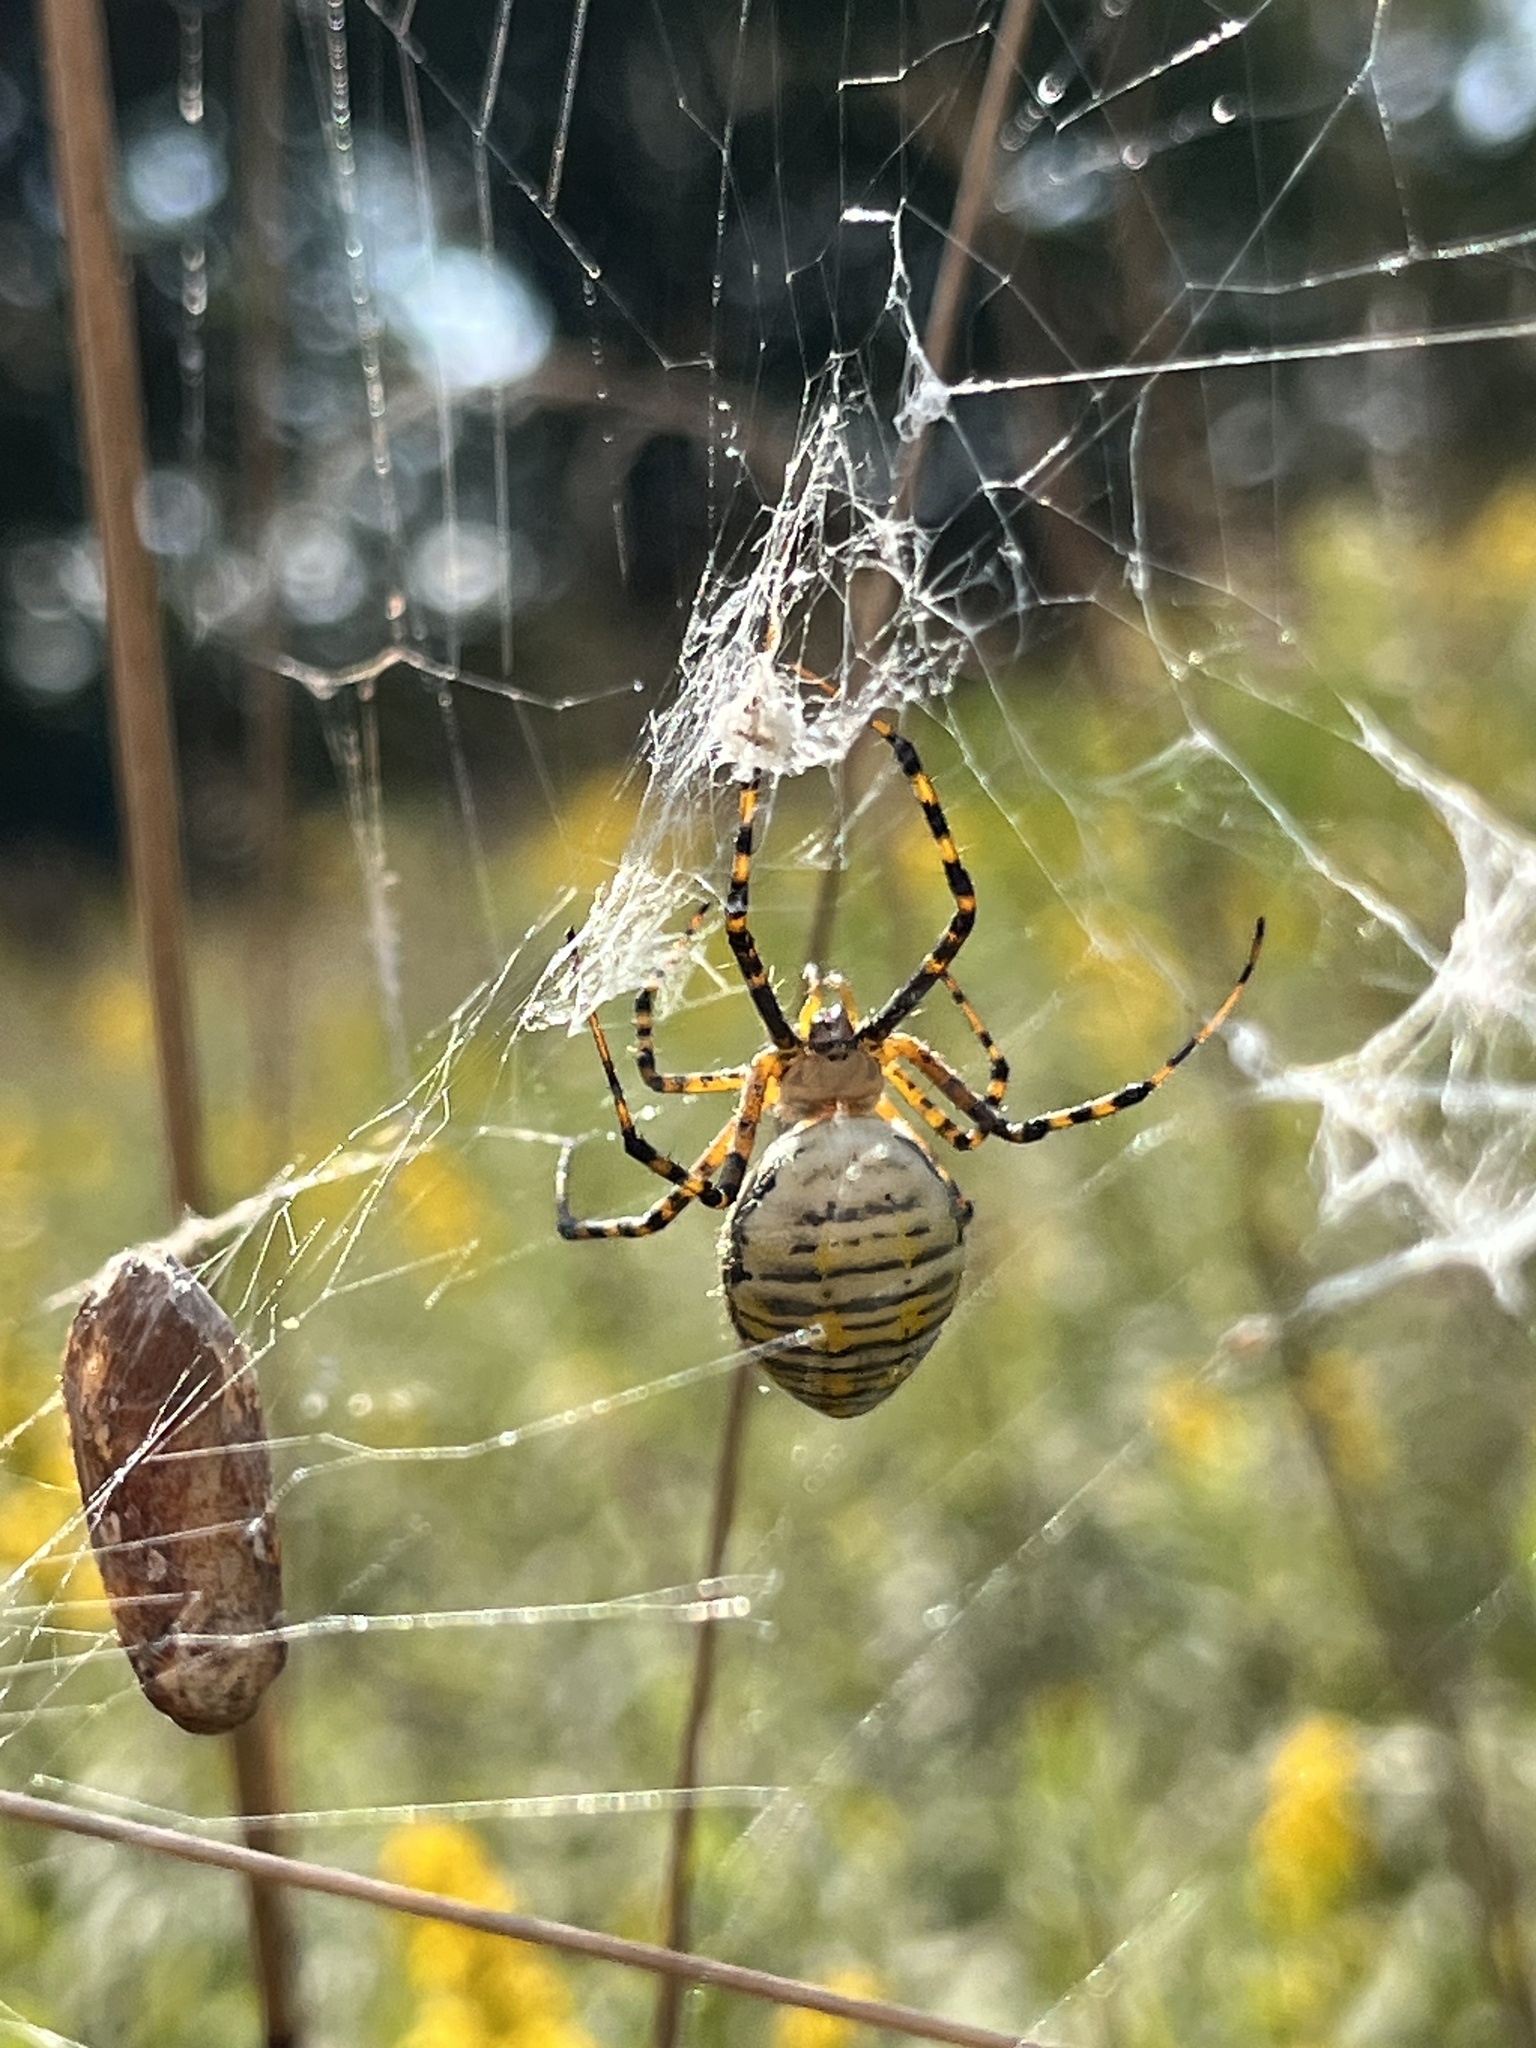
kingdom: Animalia
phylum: Arthropoda
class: Arachnida
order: Araneae
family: Araneidae
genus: Argiope
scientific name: Argiope trifasciata
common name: Banded garden spider
